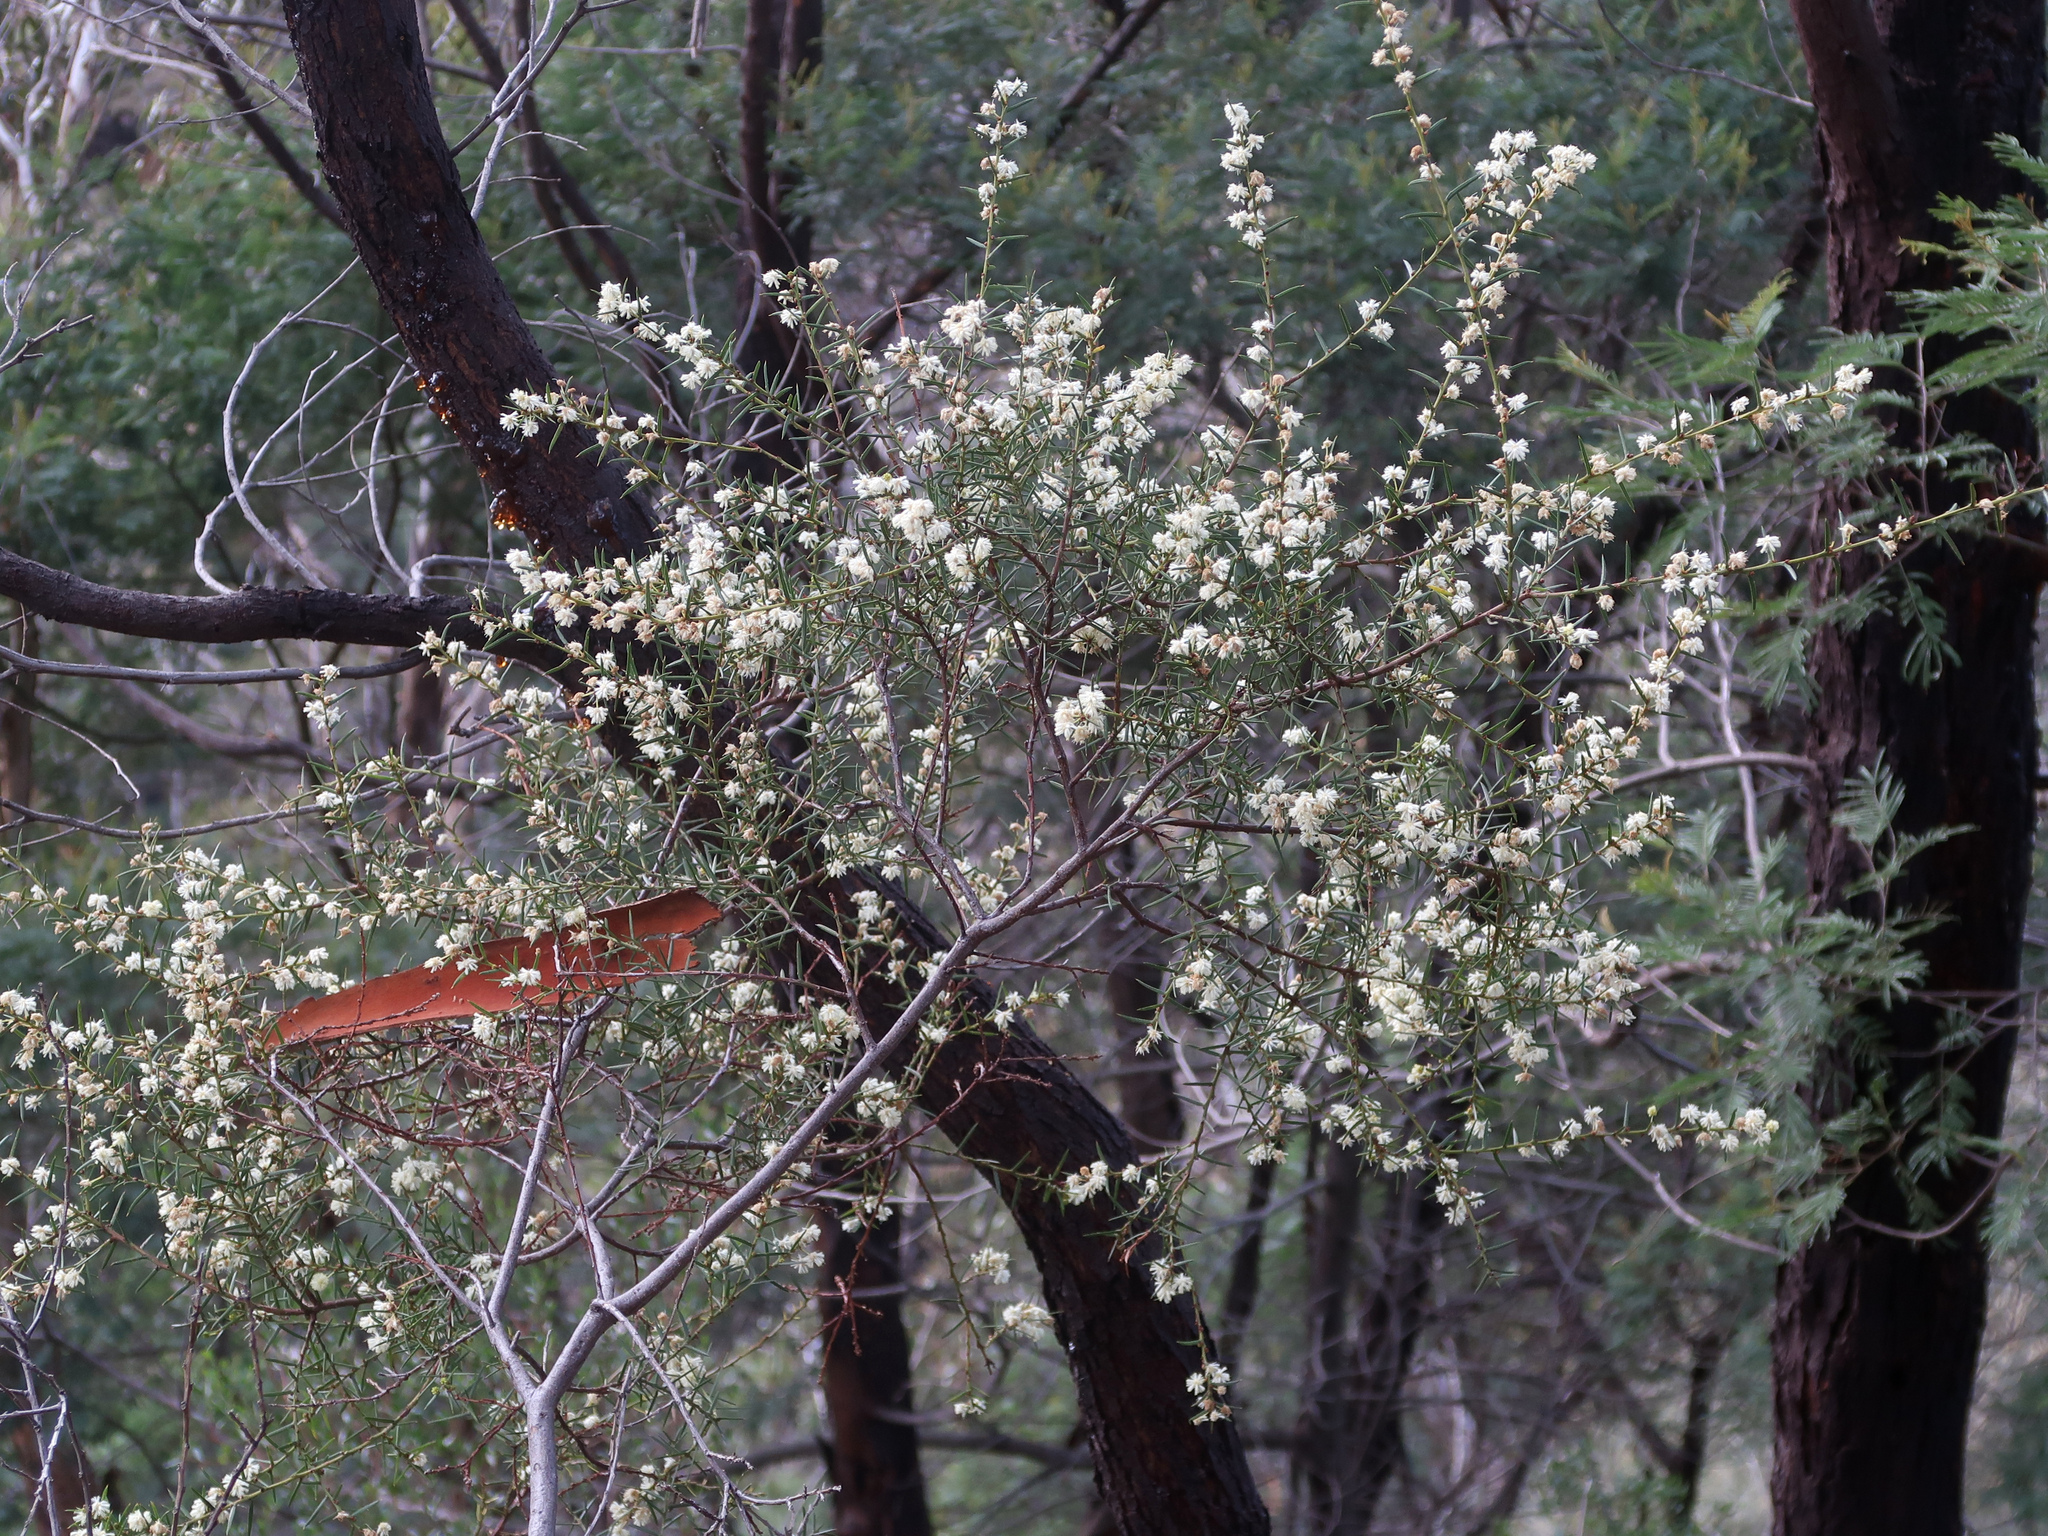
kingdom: Plantae
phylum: Tracheophyta
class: Magnoliopsida
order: Fabales
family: Fabaceae
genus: Acacia
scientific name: Acacia genistifolia
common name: Early wattle
